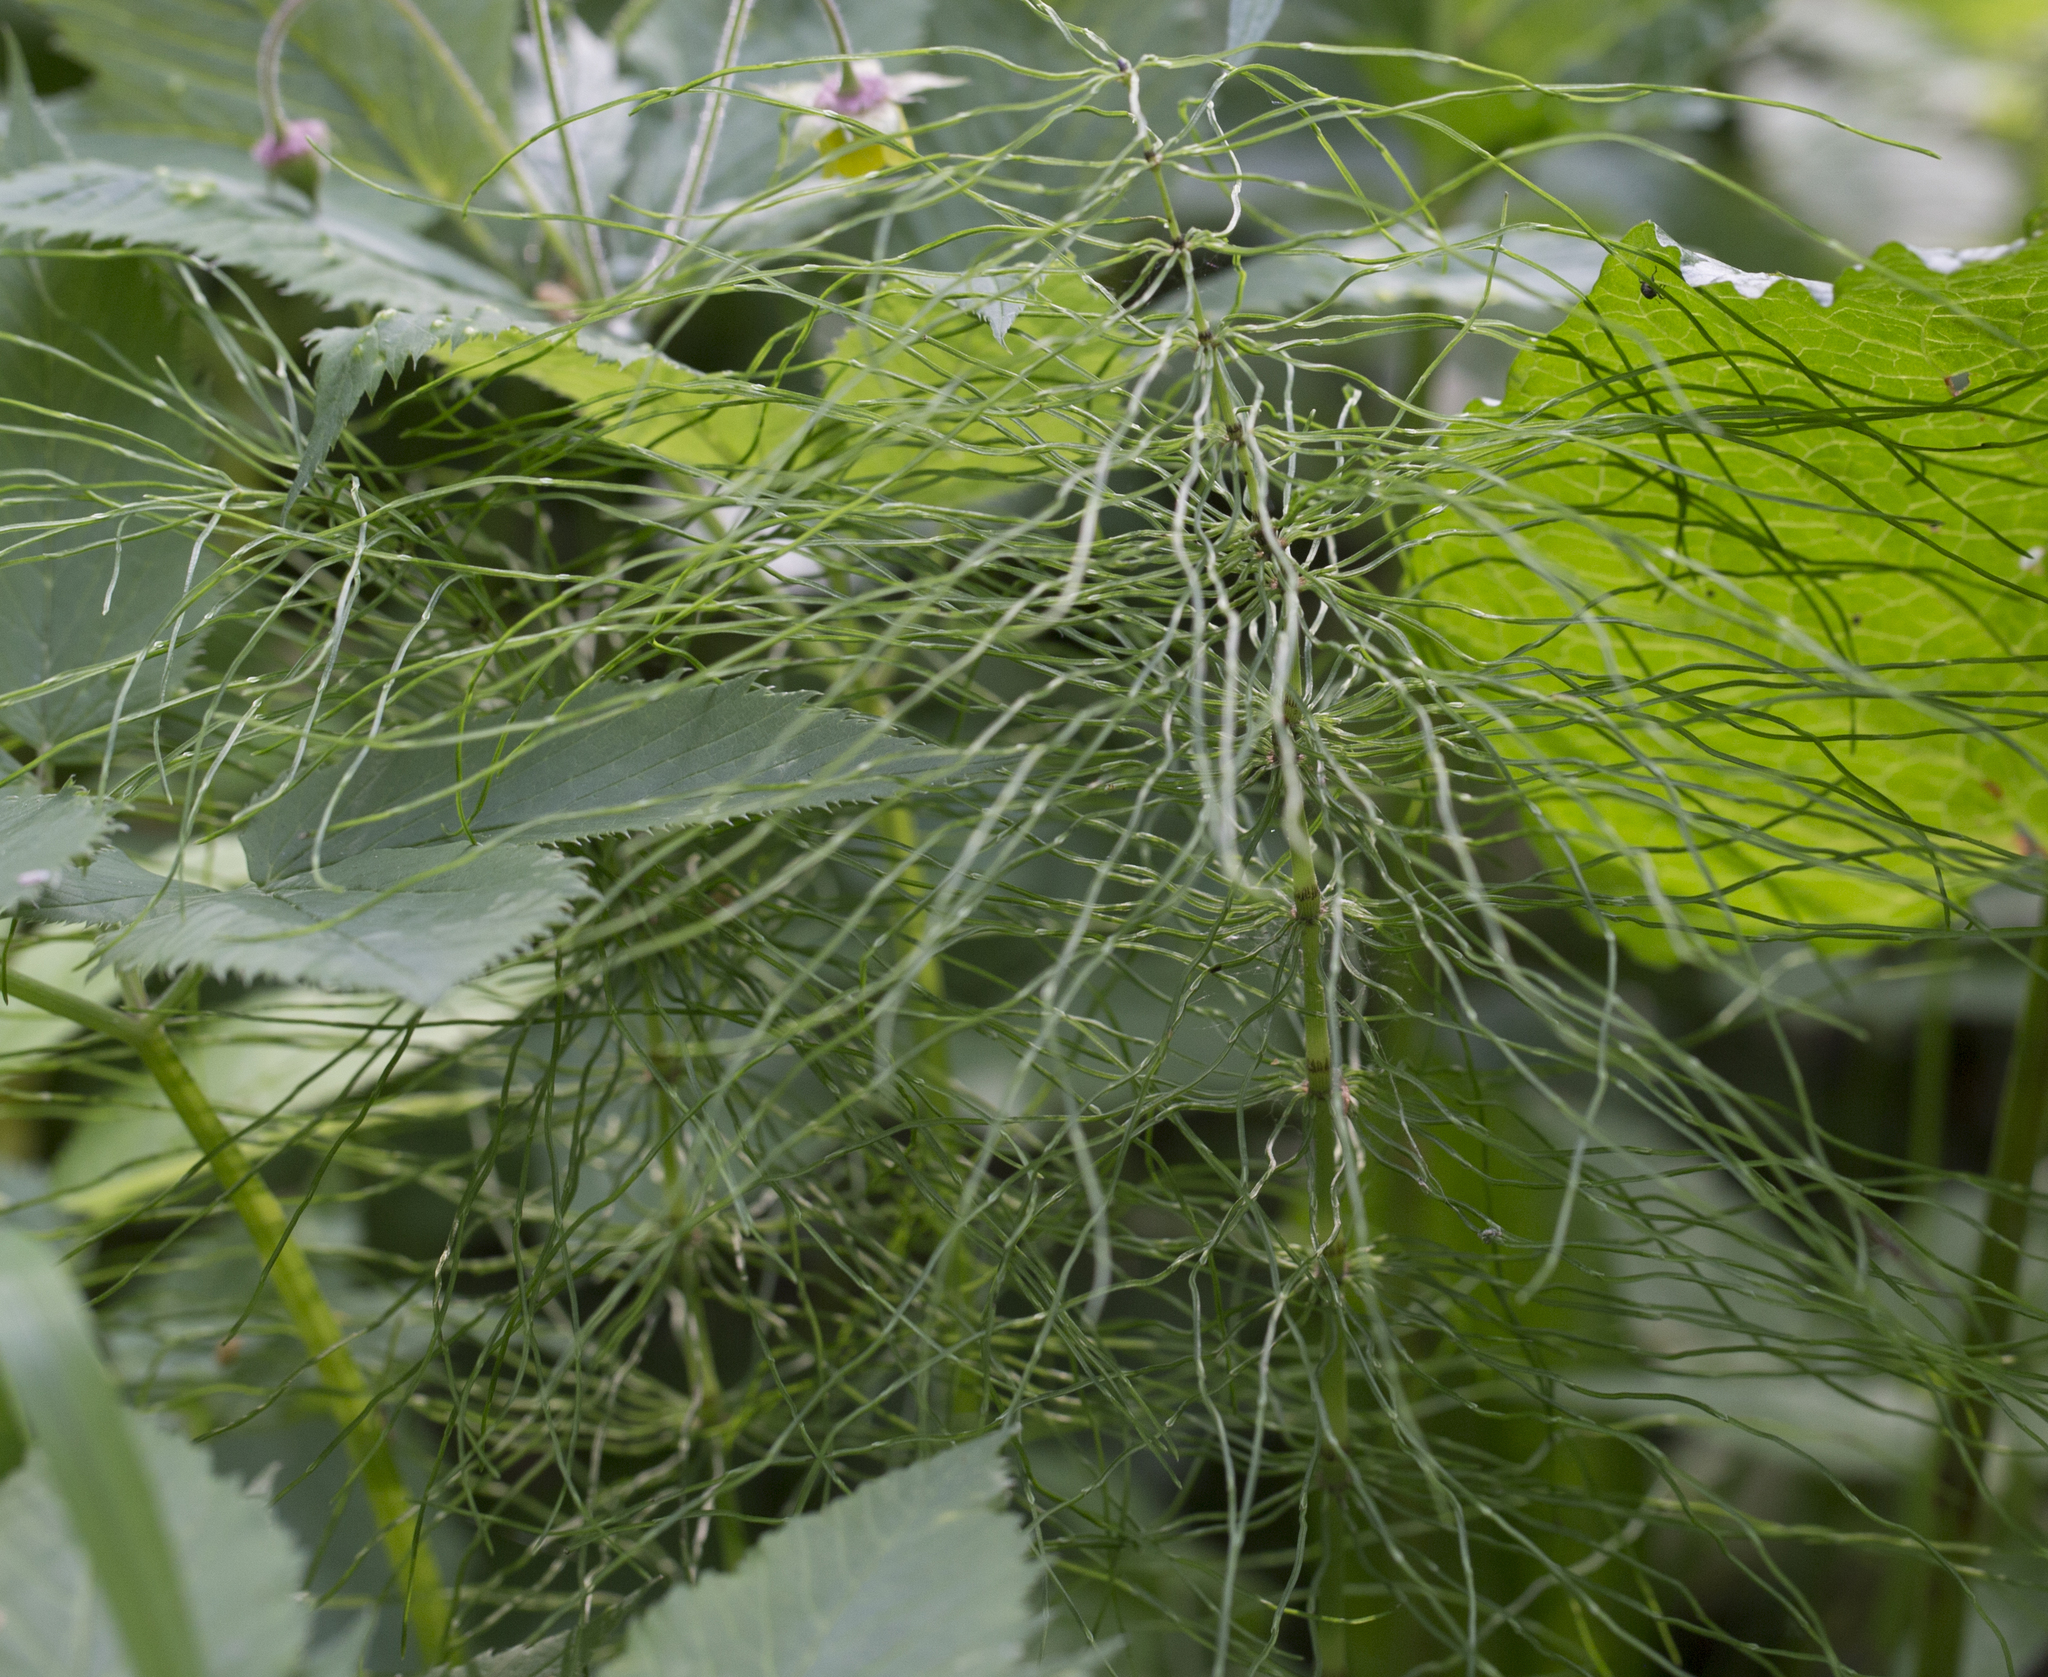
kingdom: Plantae
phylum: Tracheophyta
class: Polypodiopsida
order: Equisetales
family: Equisetaceae
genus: Equisetum
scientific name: Equisetum pratense
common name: Meadow horsetail
